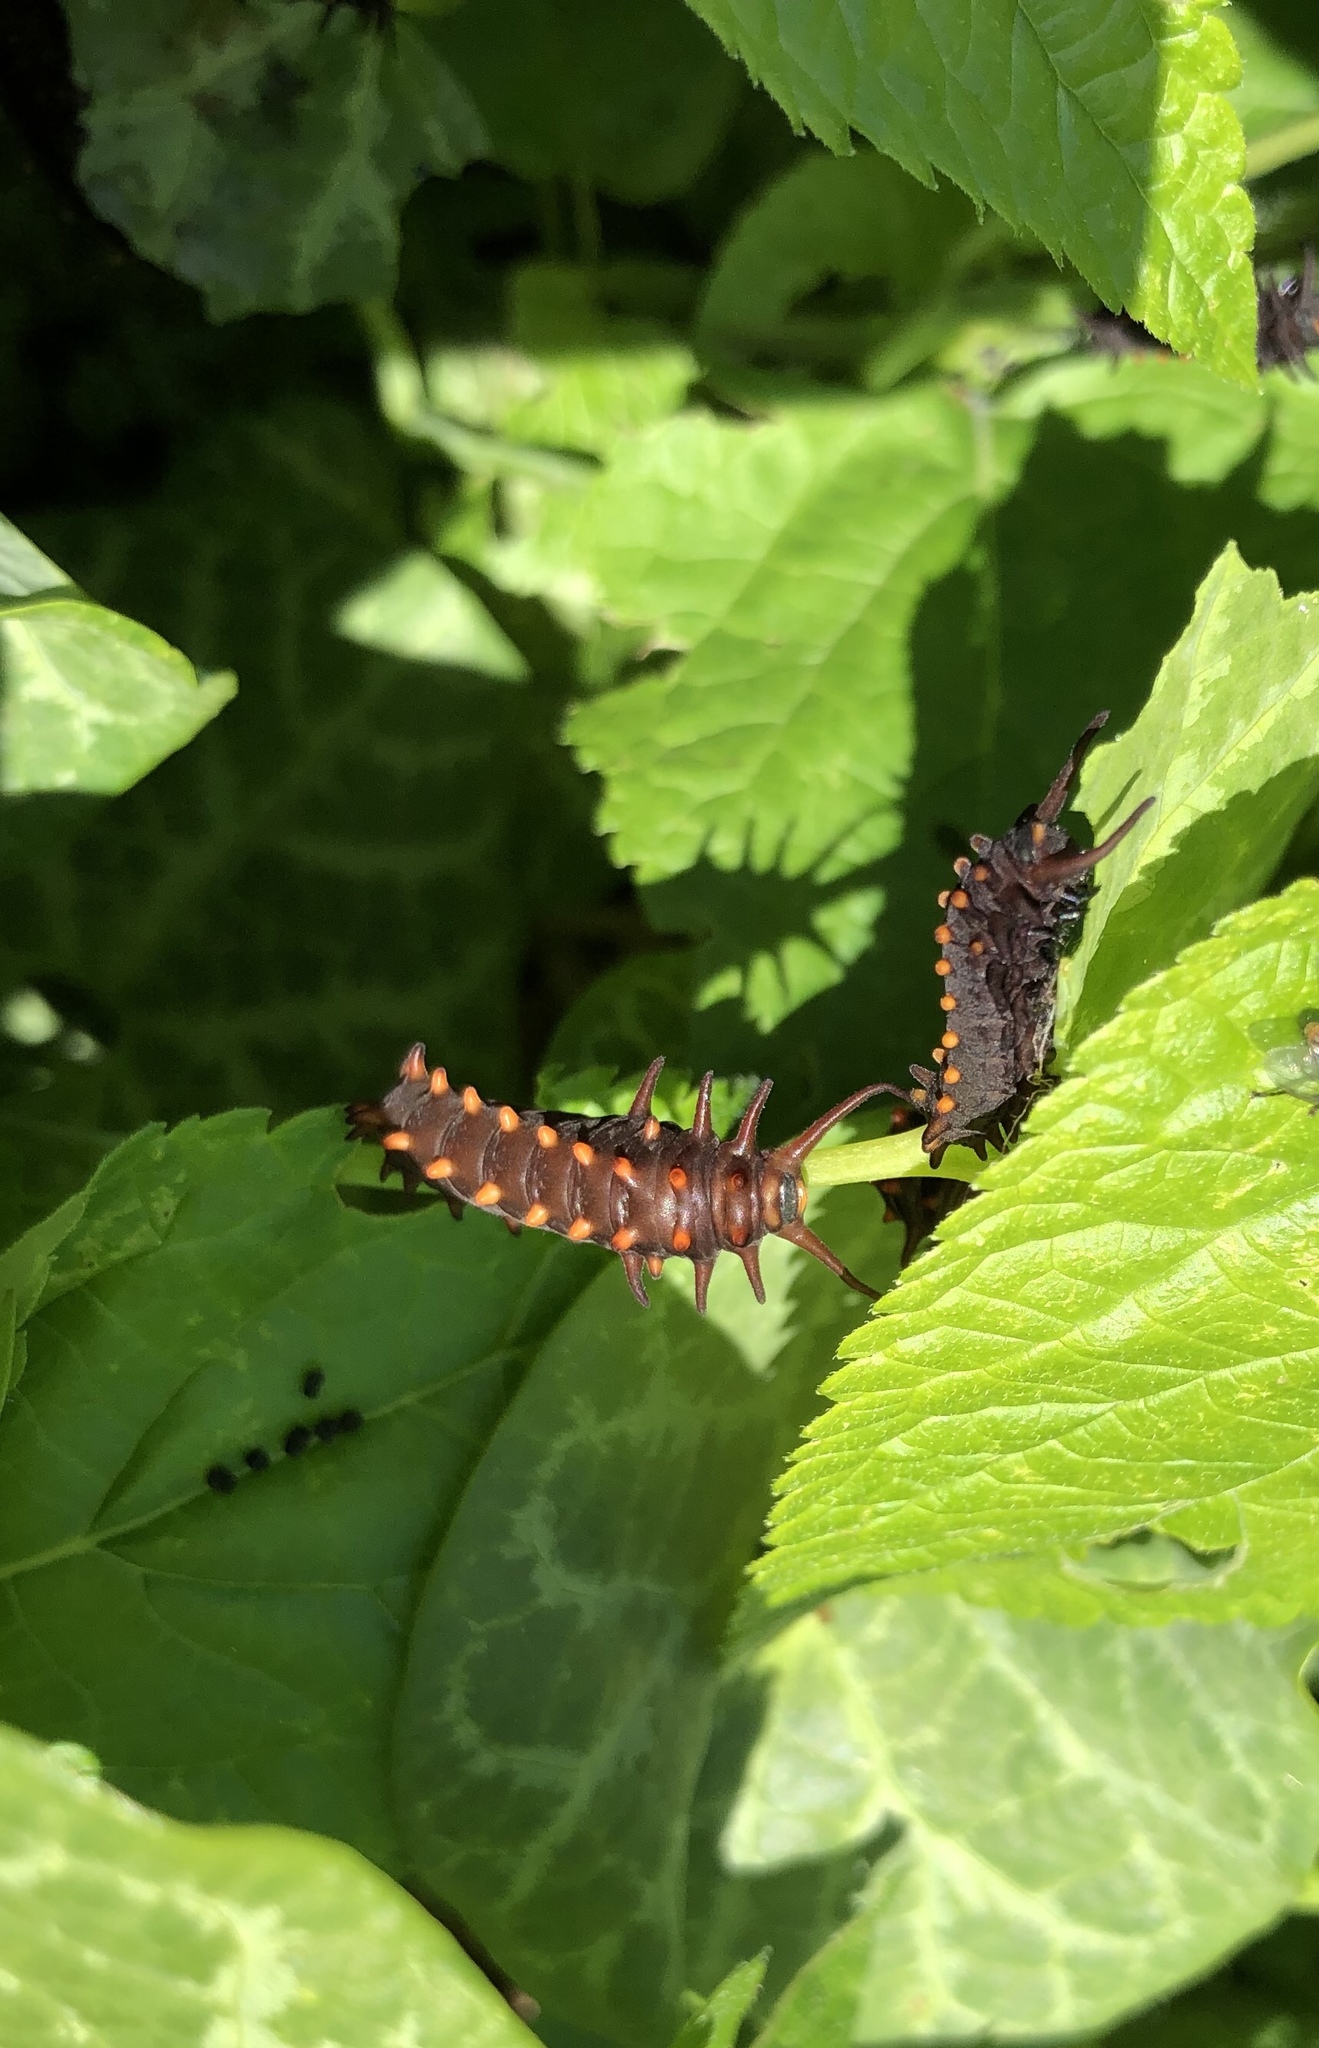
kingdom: Animalia
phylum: Arthropoda
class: Insecta
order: Lepidoptera
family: Papilionidae
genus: Battus
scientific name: Battus philenor
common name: Pipevine swallowtail
